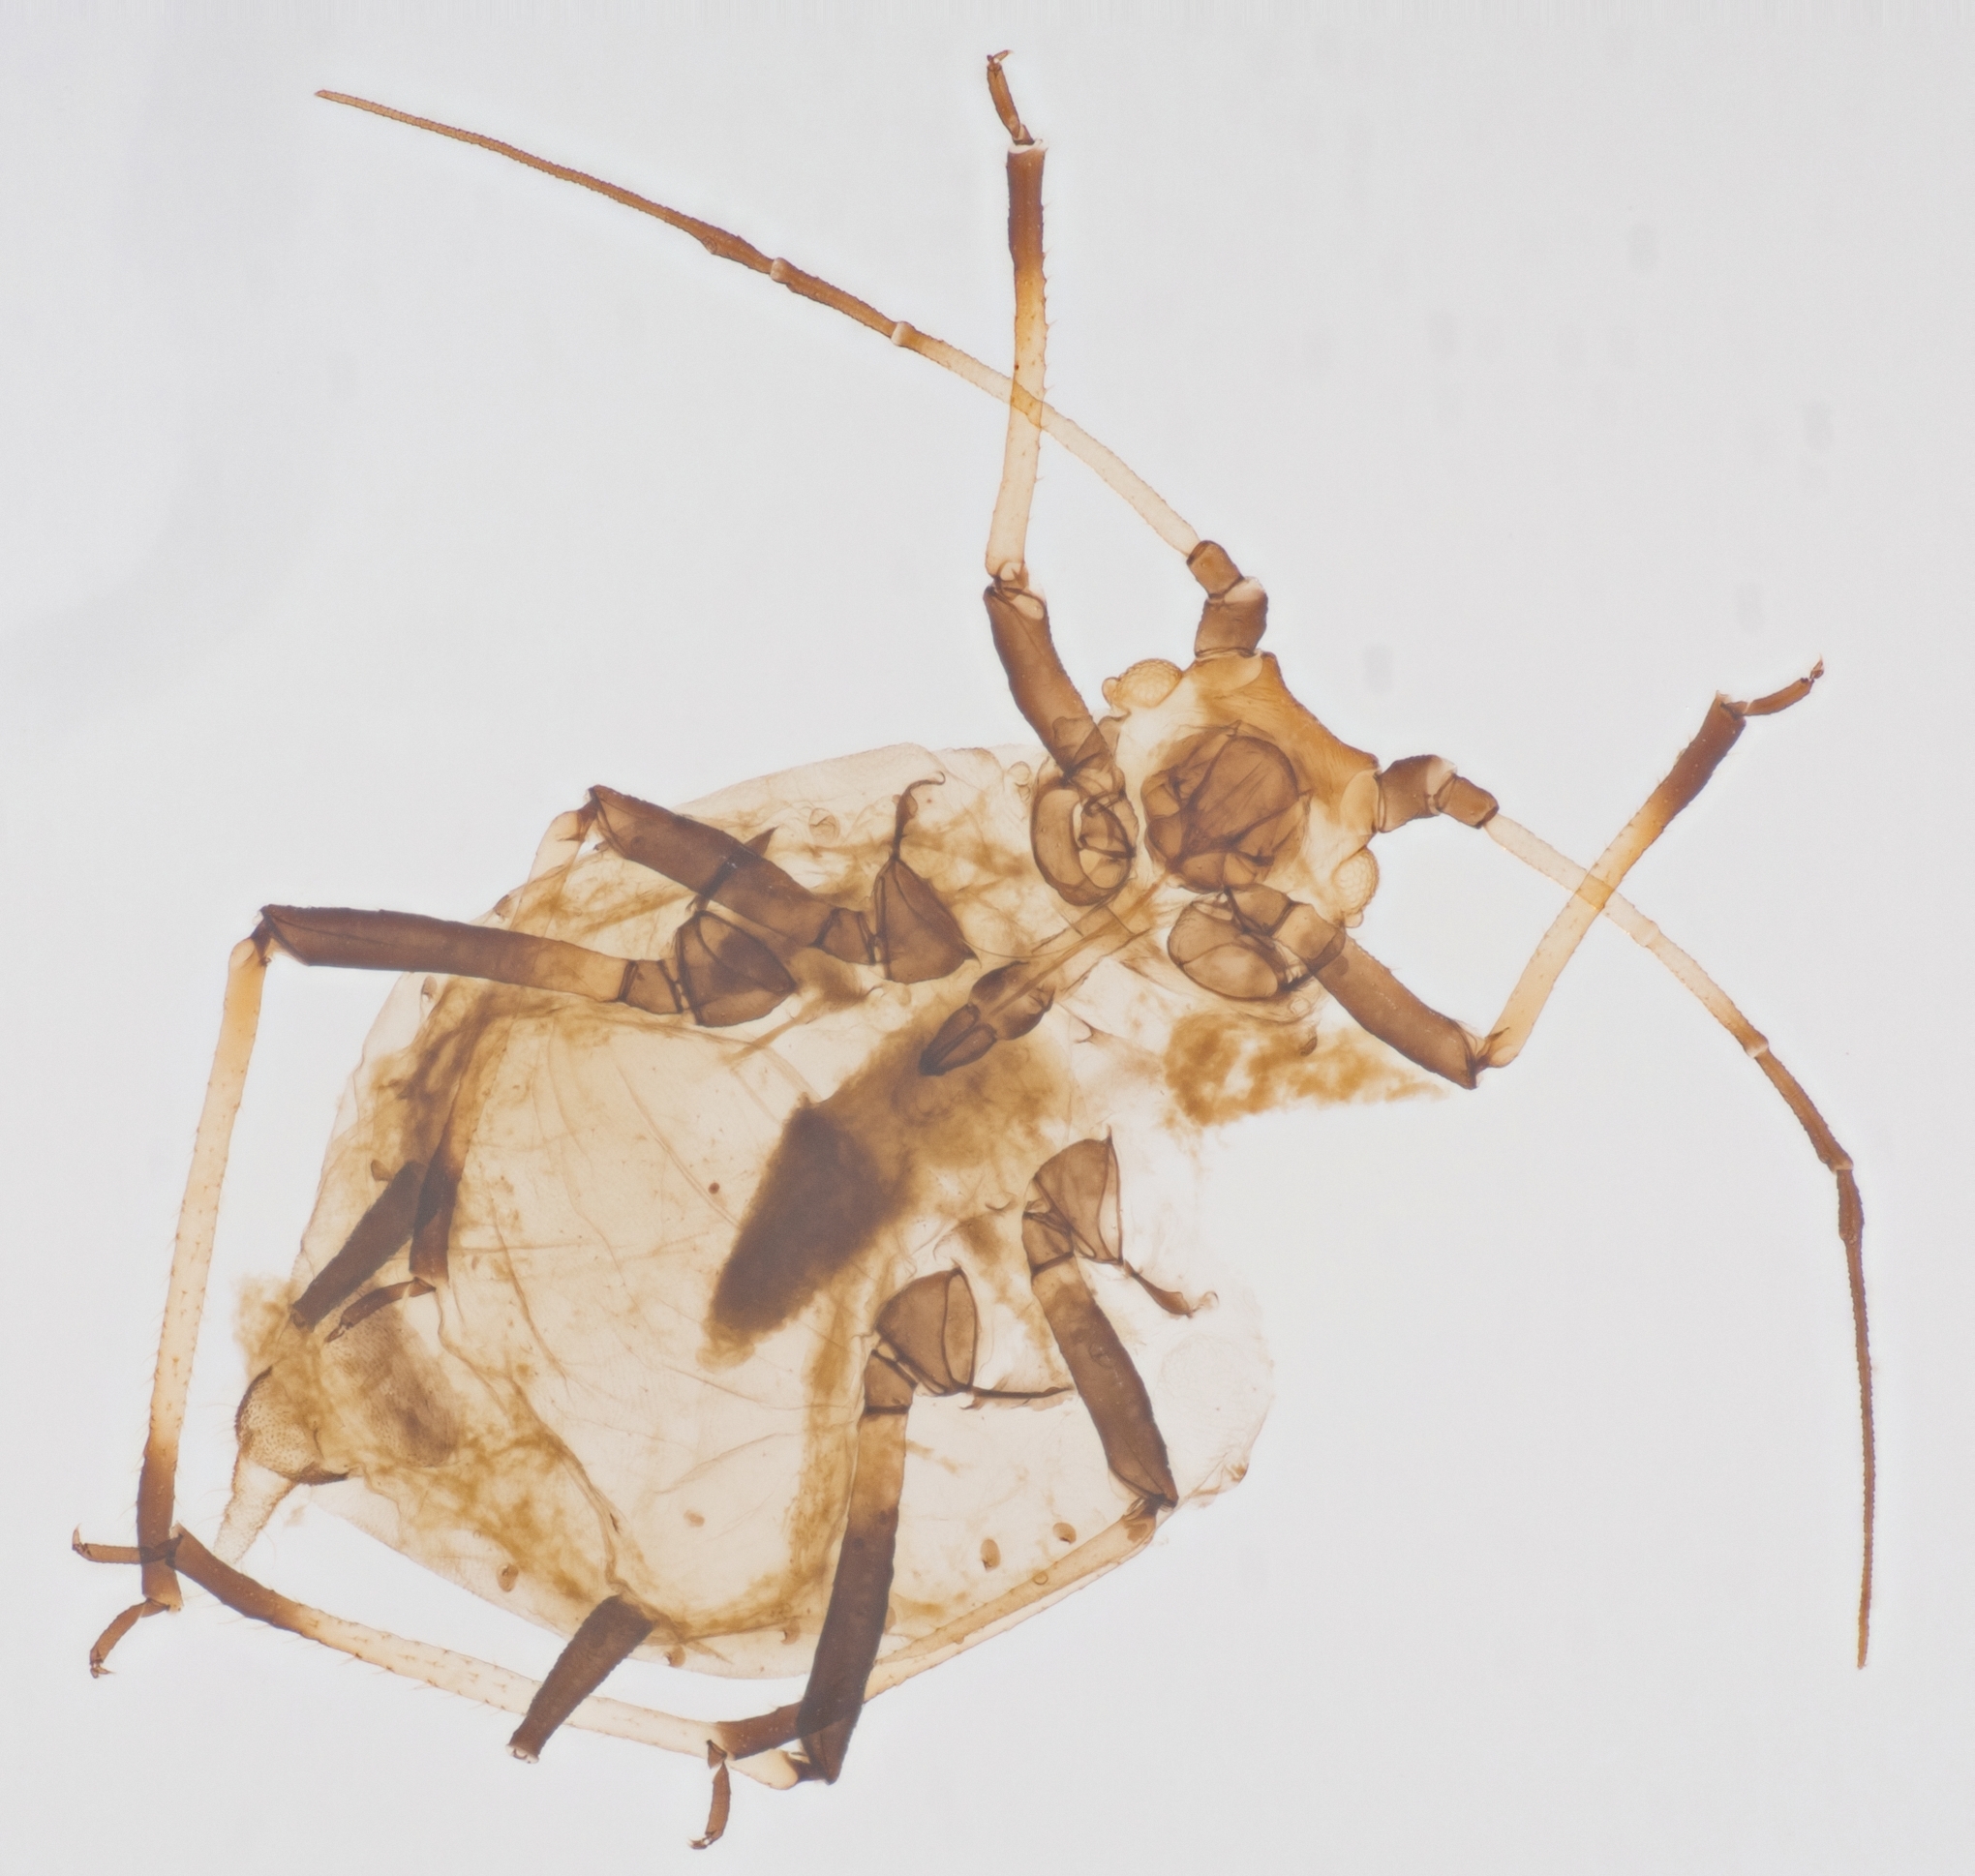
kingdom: Animalia
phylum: Arthropoda
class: Insecta
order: Hemiptera
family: Aphididae
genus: Hysteroneura
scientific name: Hysteroneura setariae
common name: Rusty plum aphid
